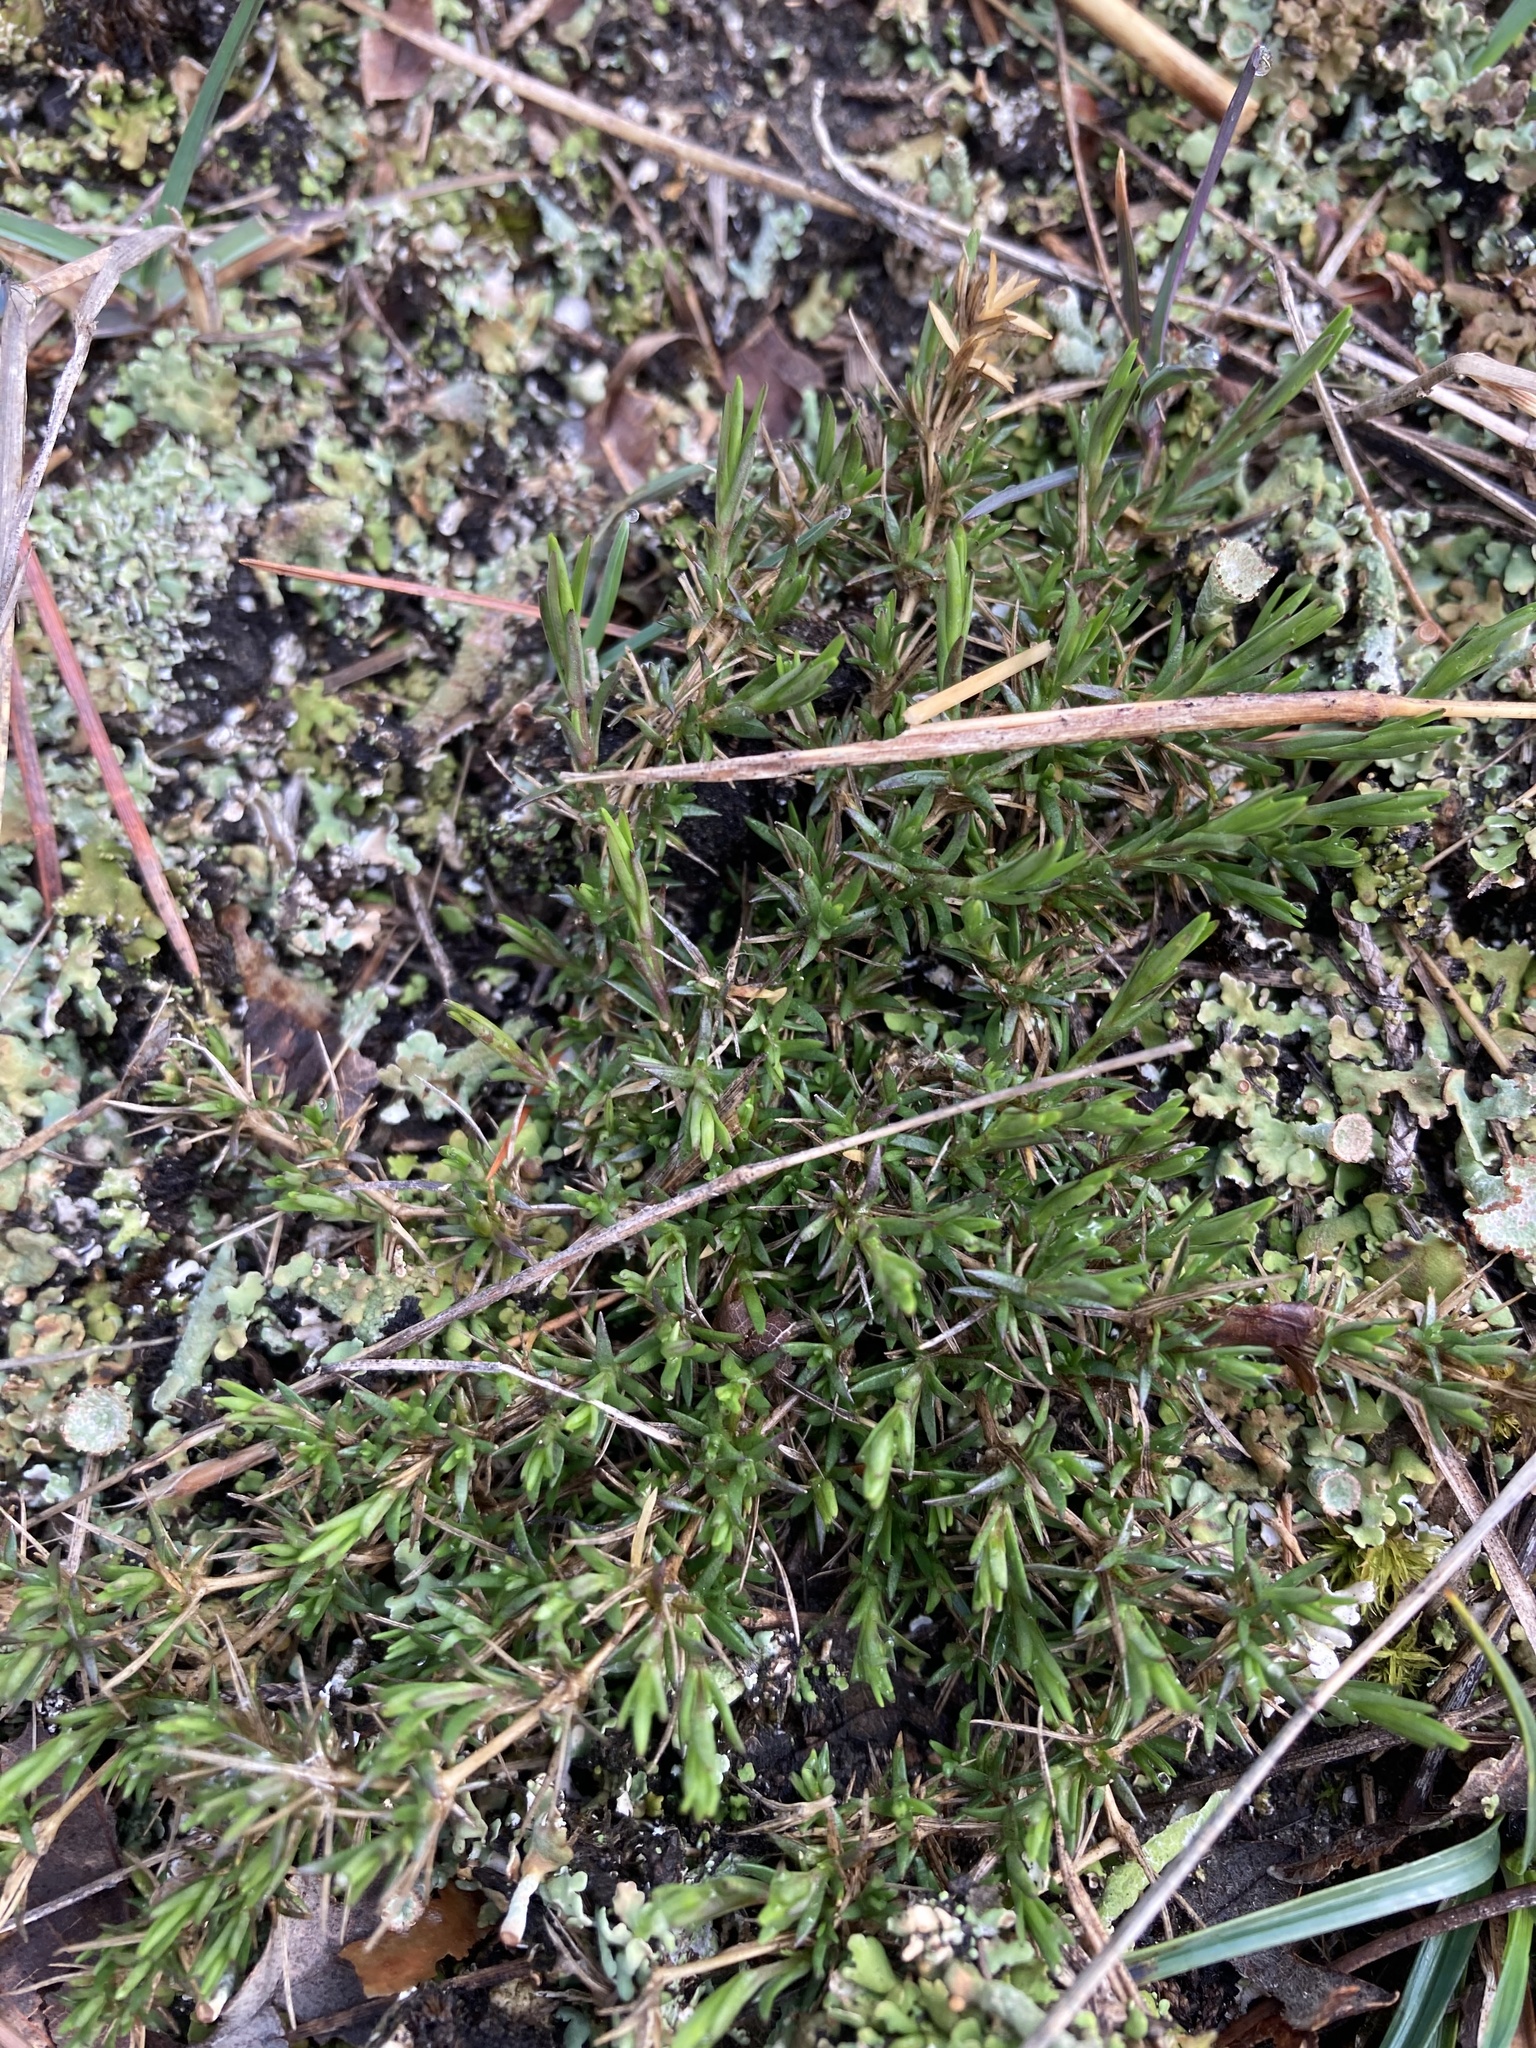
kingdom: Plantae
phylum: Tracheophyta
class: Magnoliopsida
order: Caryophyllales
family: Caryophyllaceae
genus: Sabulina
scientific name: Sabulina michauxii
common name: Michaux's stitchwort
